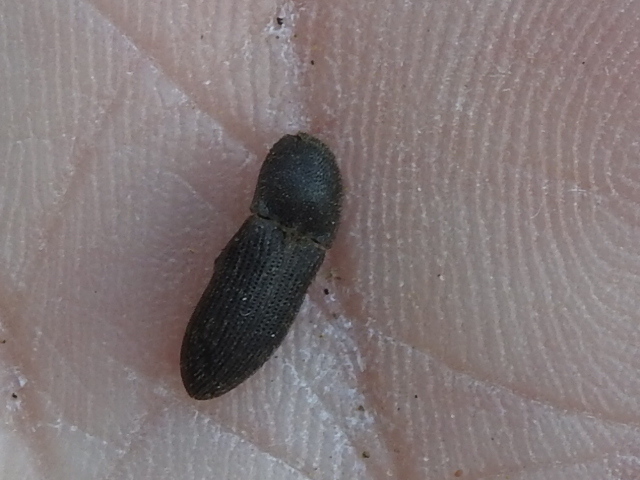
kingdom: Animalia
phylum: Arthropoda
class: Insecta
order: Coleoptera
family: Elateridae
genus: Agrypnus
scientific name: Agrypnus rectangularis
